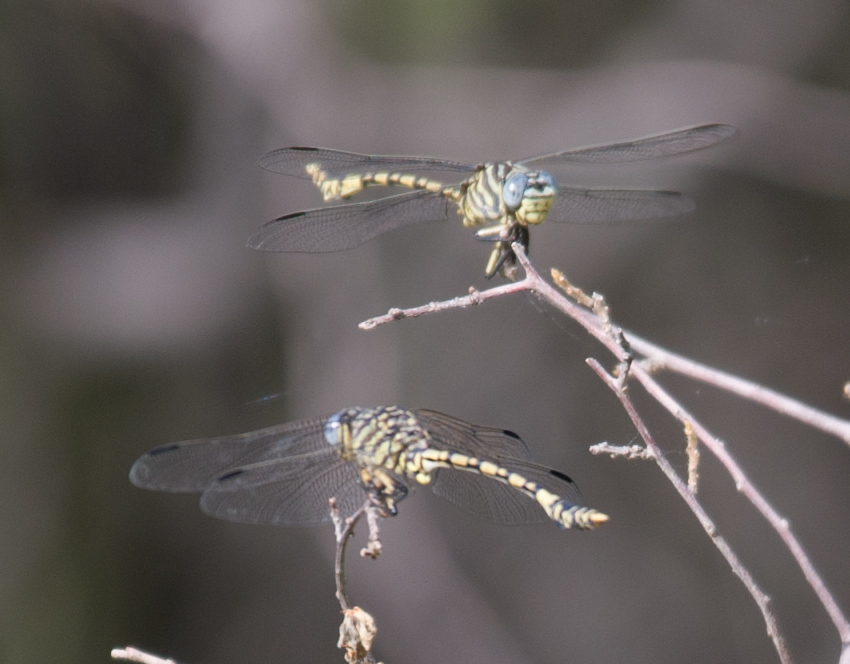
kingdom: Animalia
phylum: Arthropoda
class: Insecta
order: Odonata
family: Gomphidae
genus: Ictinogomphus
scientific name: Ictinogomphus dundoensis
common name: Swamp tigertail
